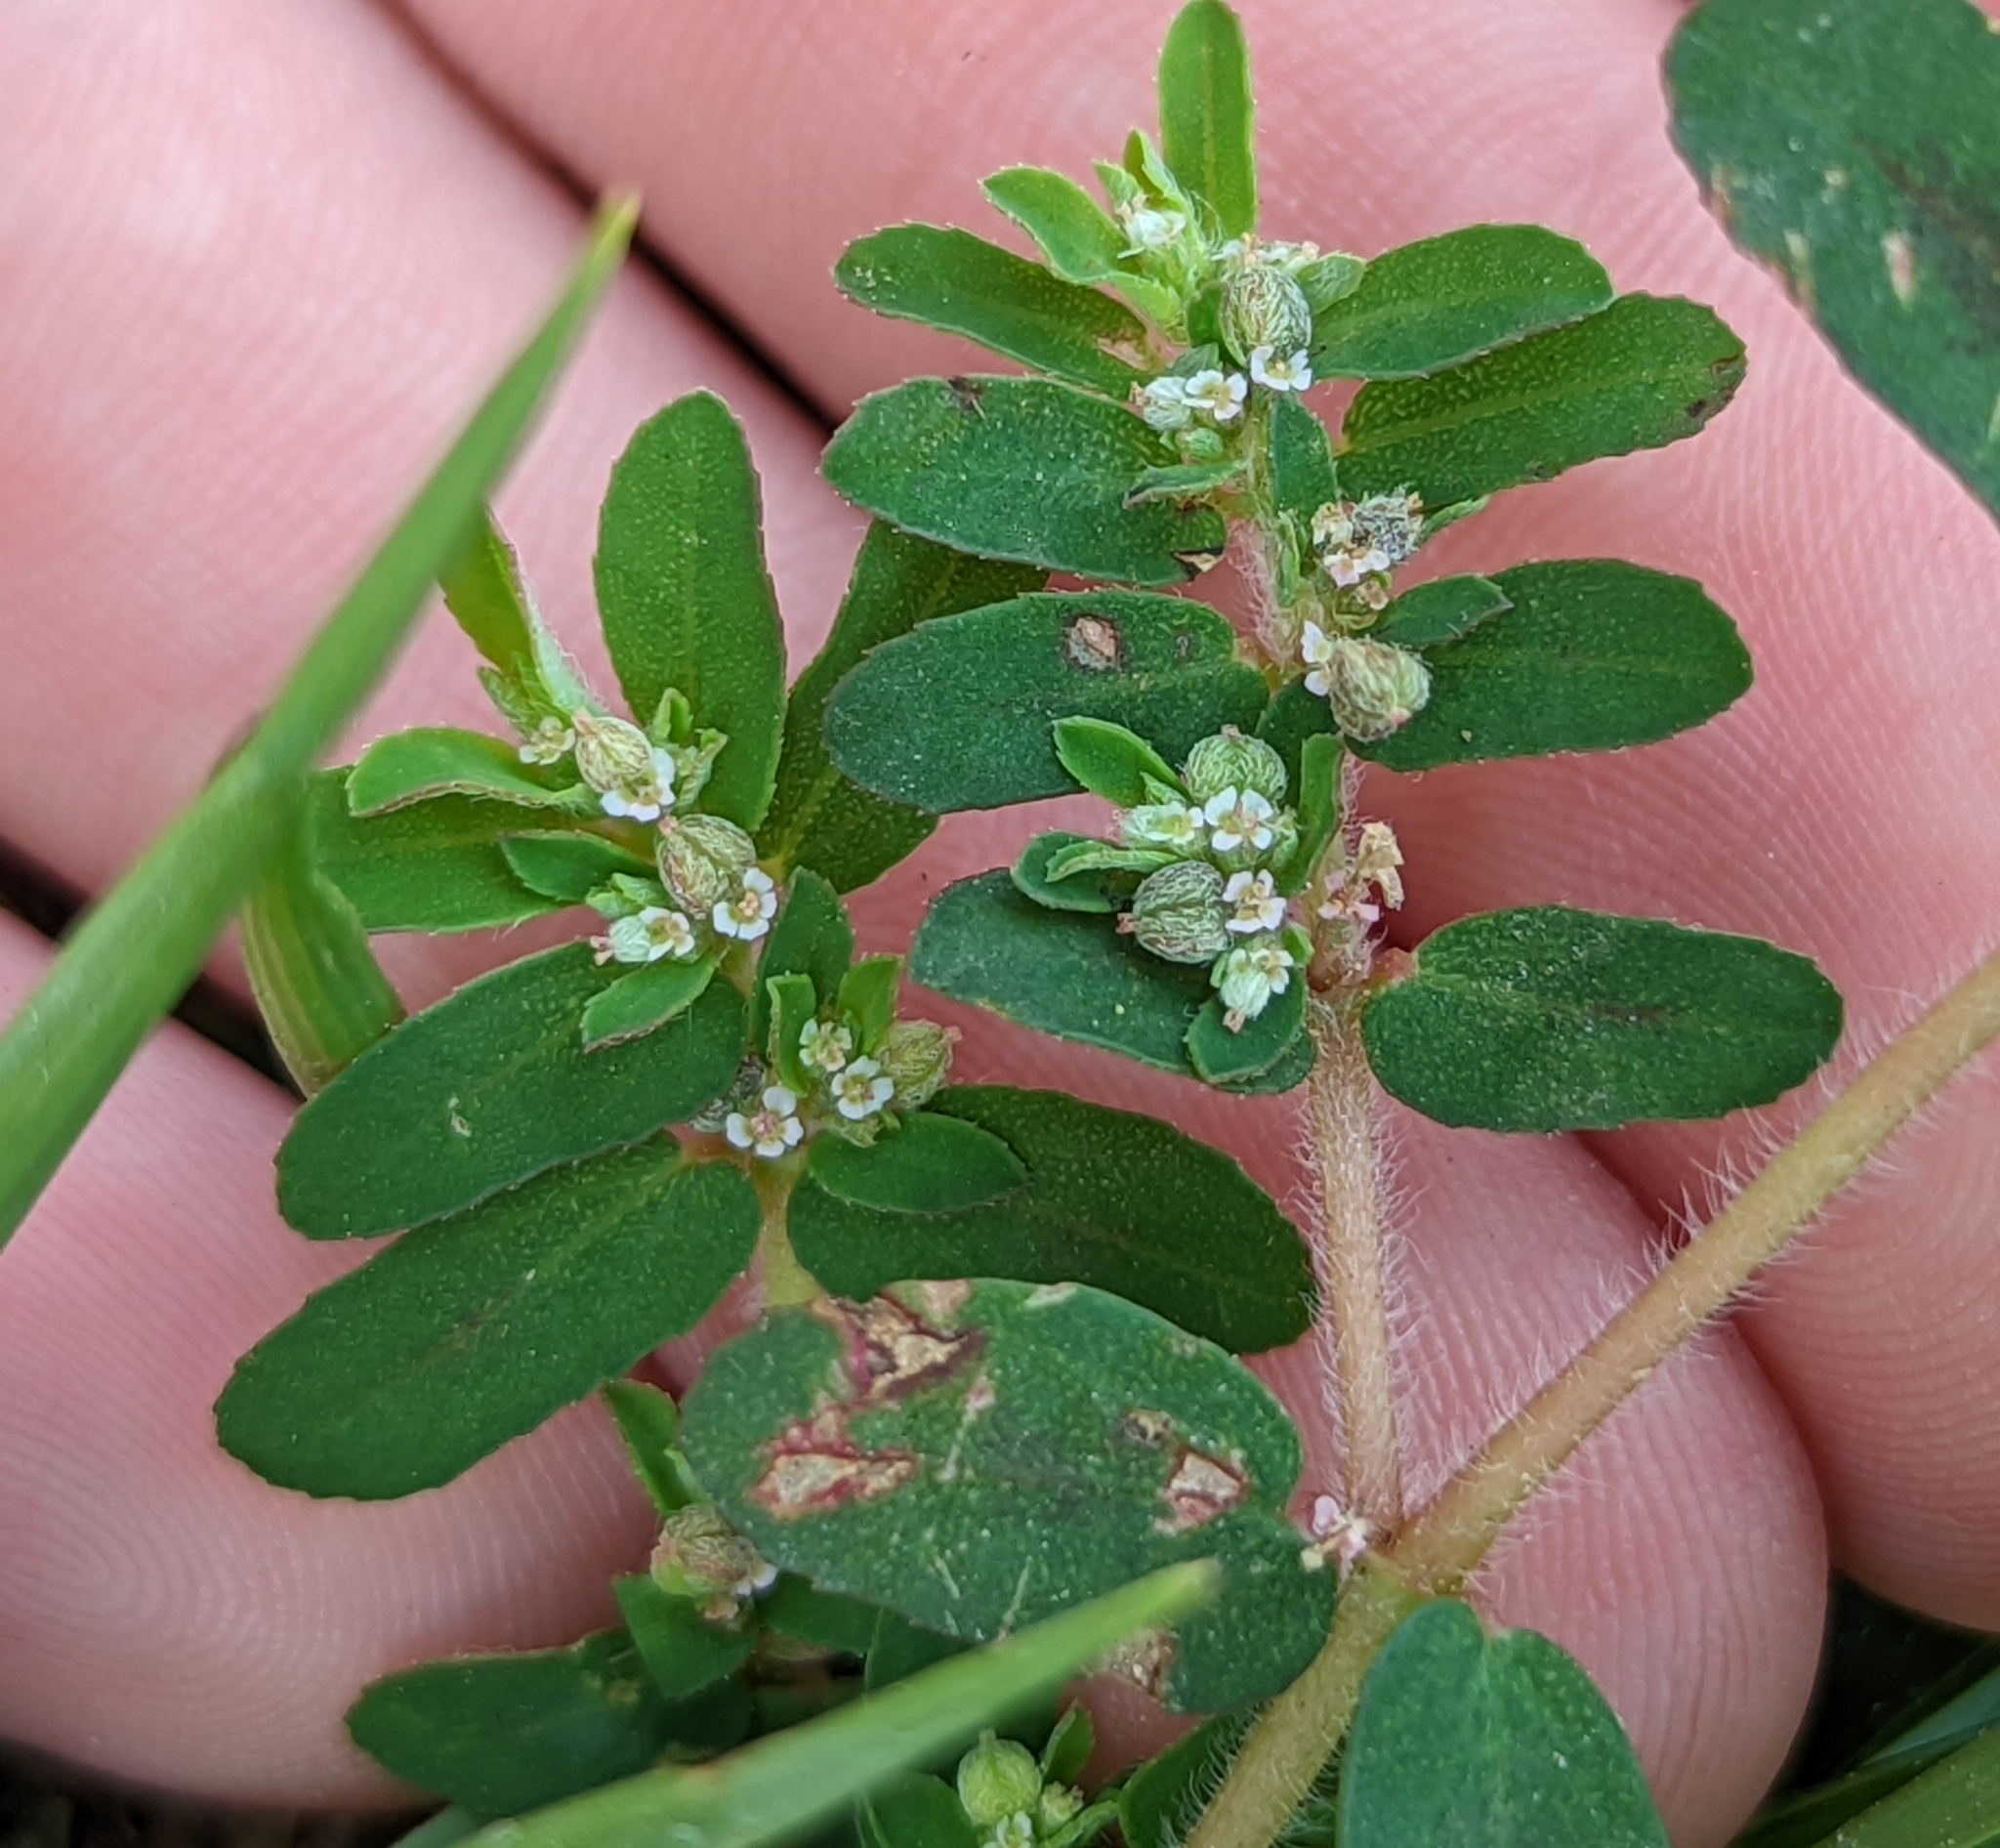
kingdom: Plantae
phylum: Tracheophyta
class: Magnoliopsida
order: Malpighiales
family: Euphorbiaceae
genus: Euphorbia
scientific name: Euphorbia maculata
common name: Spotted spurge
